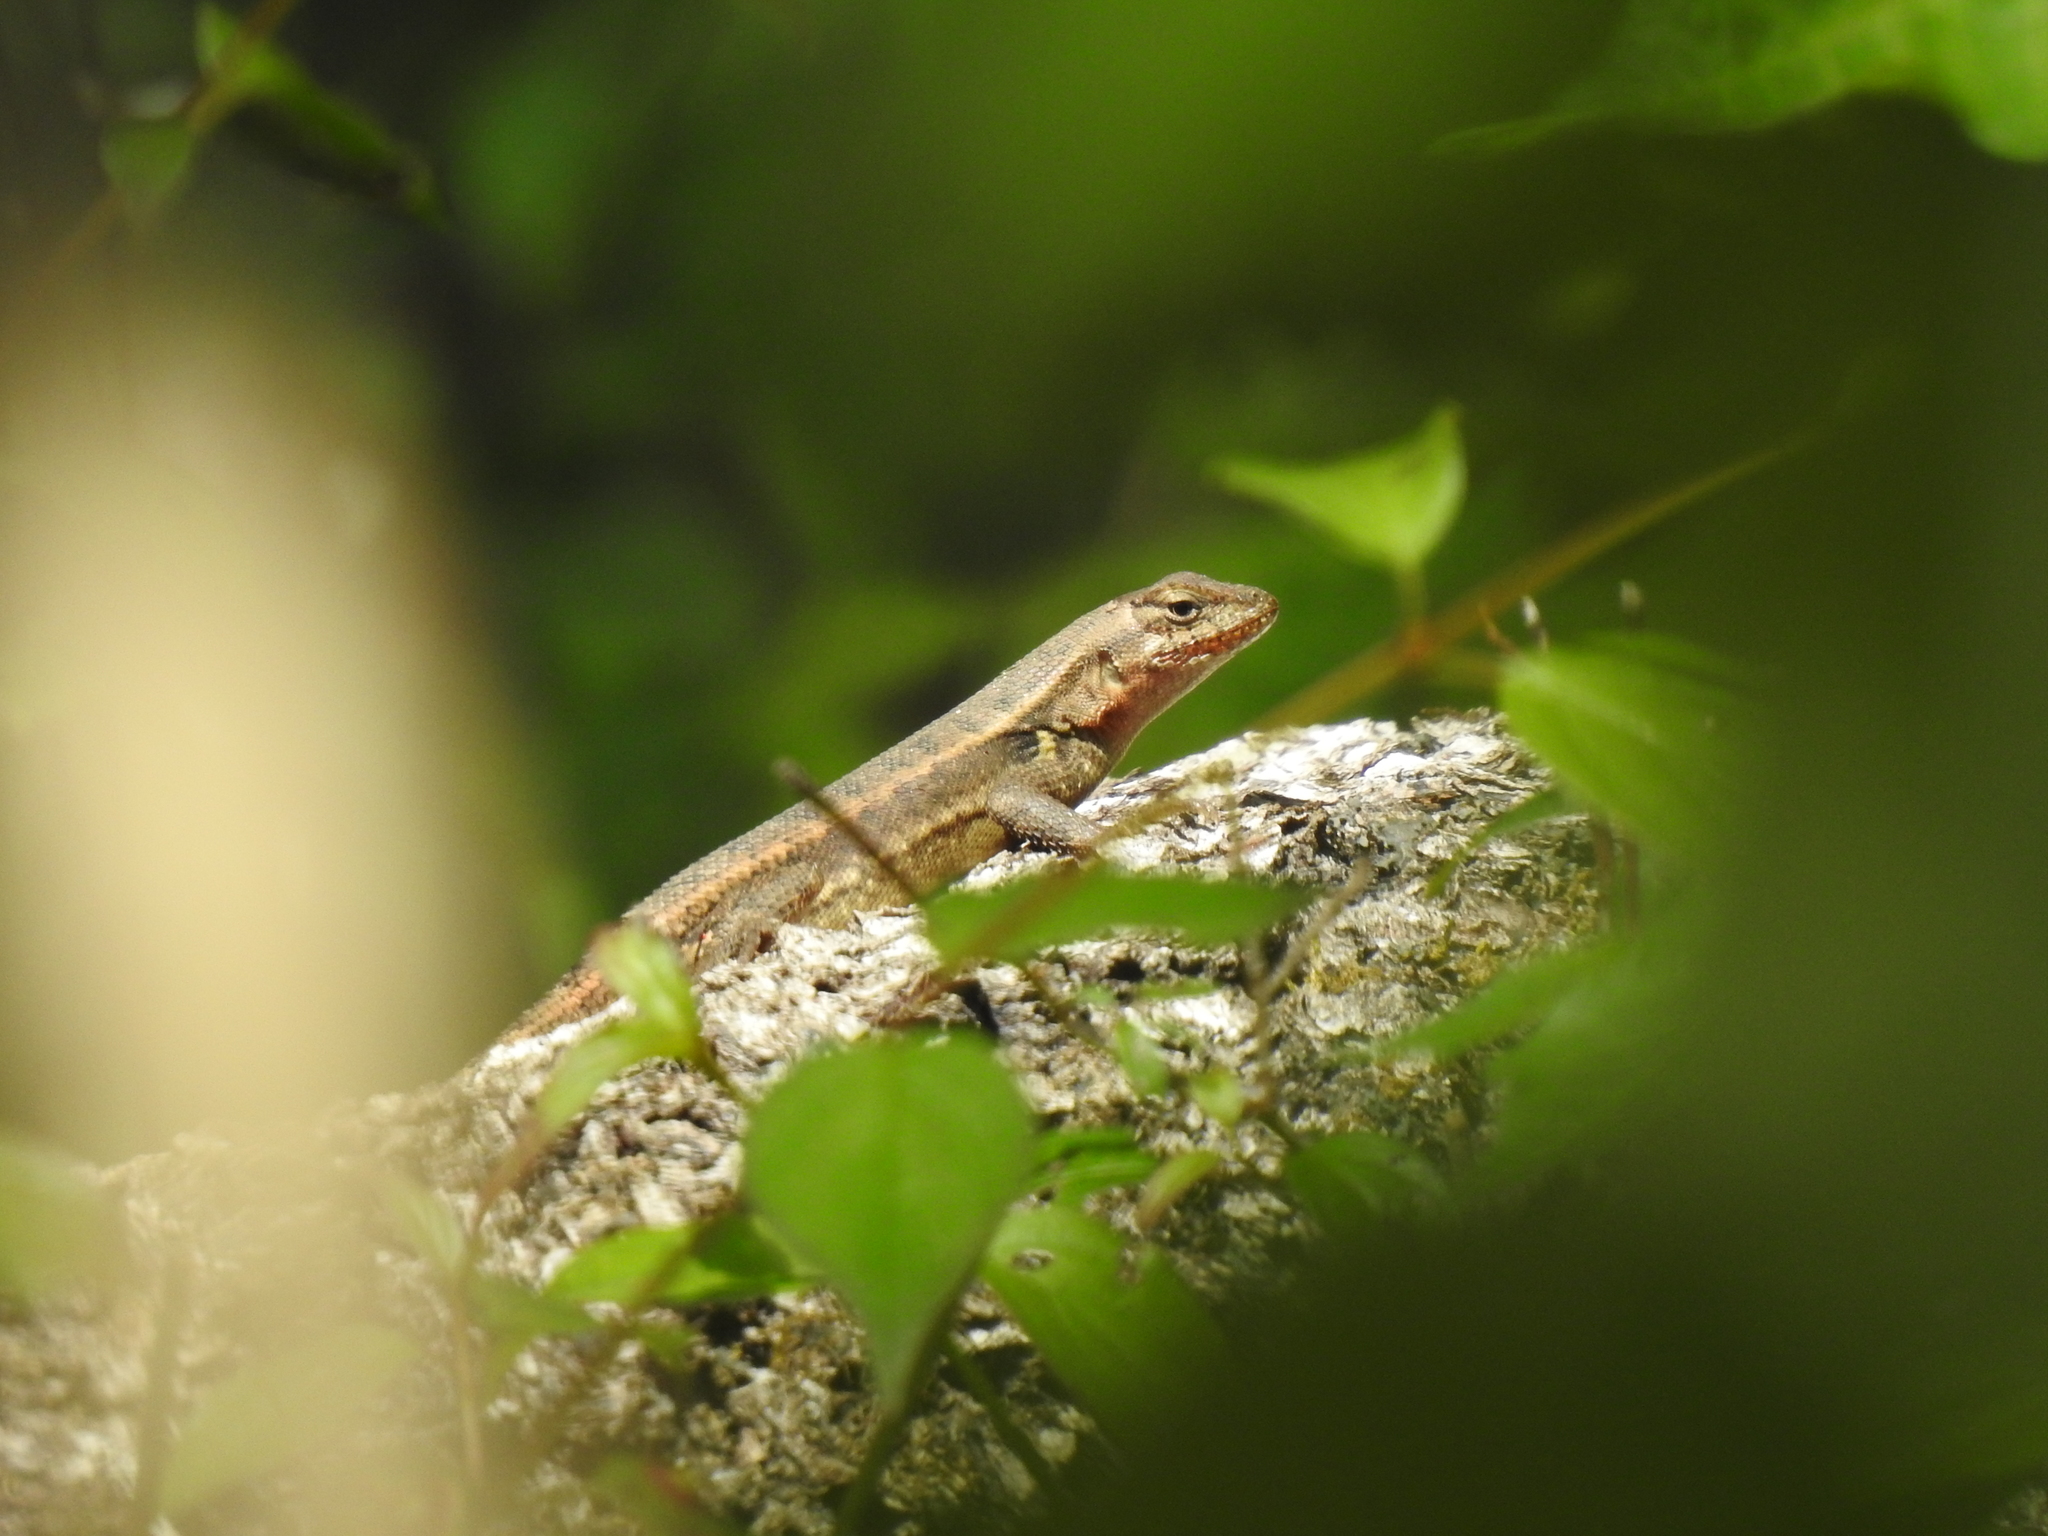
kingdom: Animalia
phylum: Chordata
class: Squamata
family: Phrynosomatidae
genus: Sceloporus
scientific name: Sceloporus variabilis
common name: Rosebelly lizard
